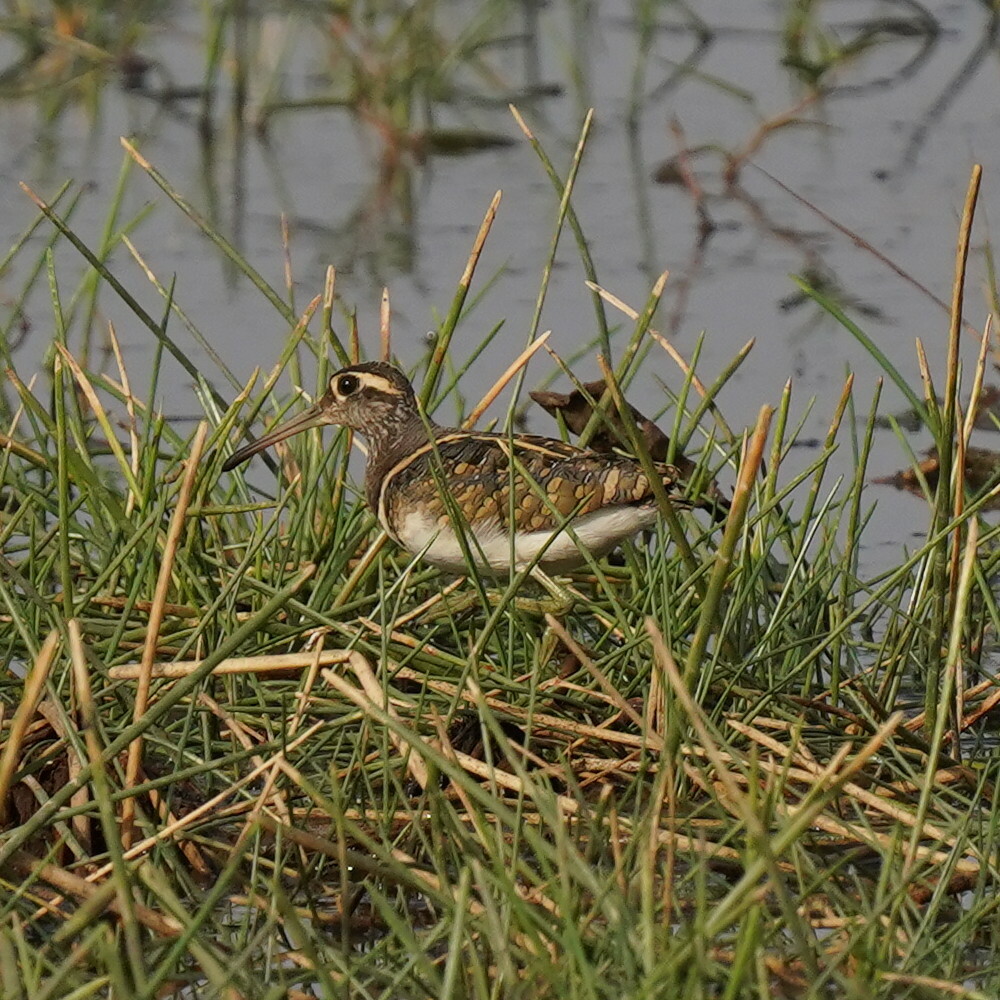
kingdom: Animalia
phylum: Chordata
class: Aves
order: Charadriiformes
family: Rostratulidae
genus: Rostratula
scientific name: Rostratula benghalensis
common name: Greater painted-snipe
